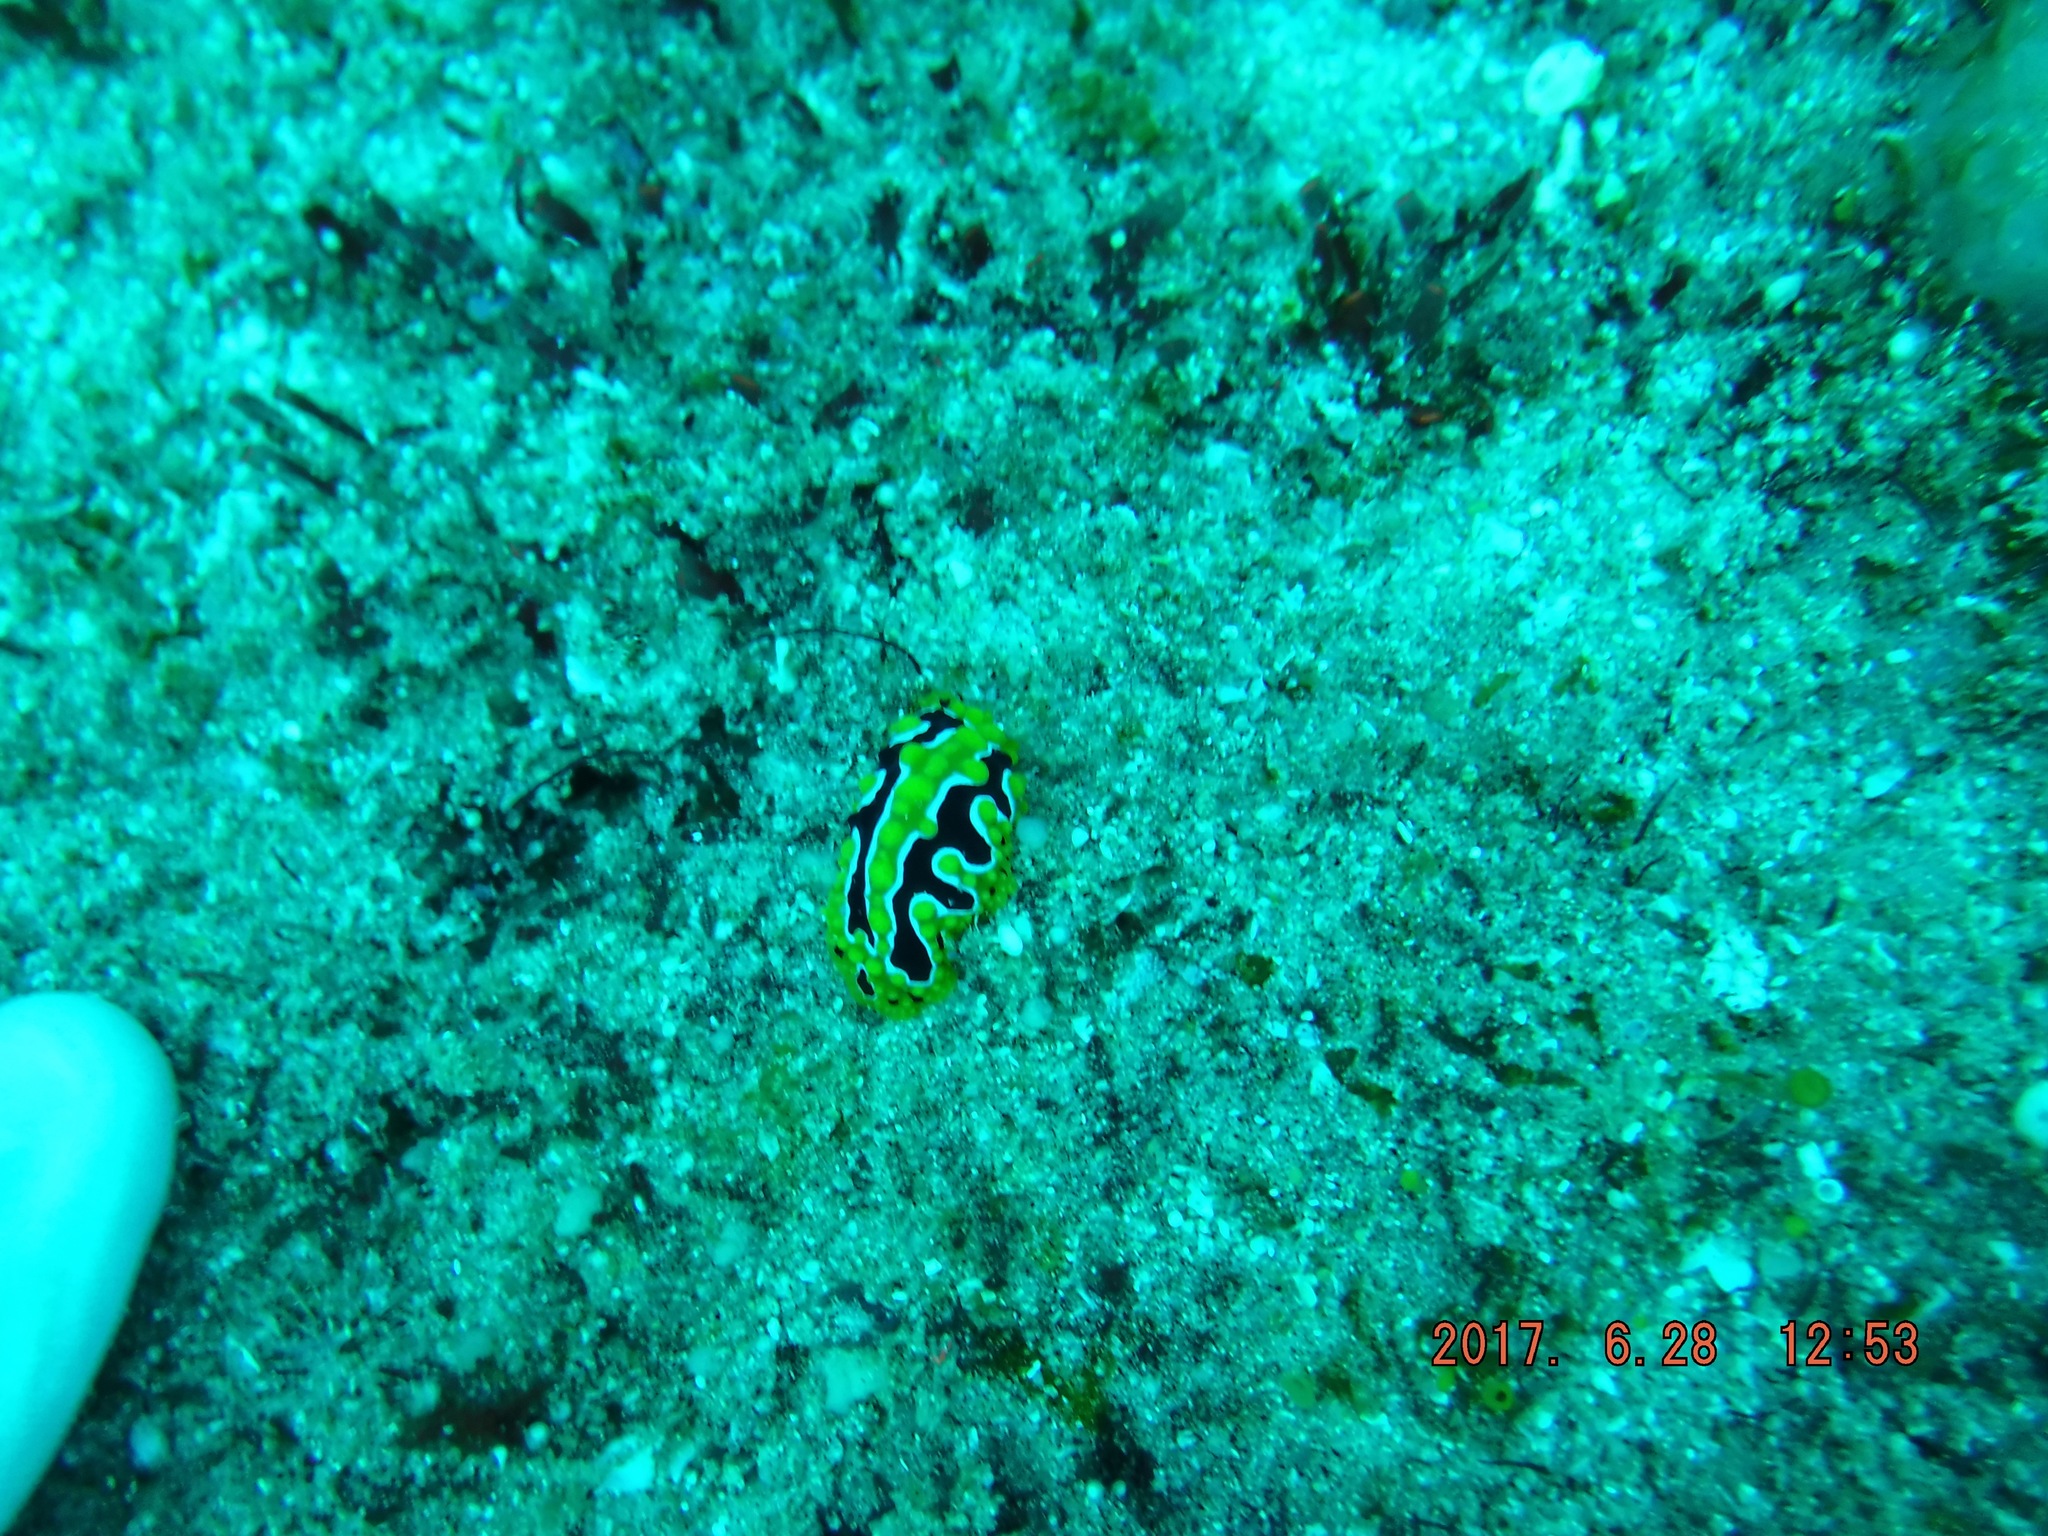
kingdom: Animalia
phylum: Mollusca
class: Gastropoda
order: Nudibranchia
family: Phyllidiidae
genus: Phyllidia
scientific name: Phyllidia ocellata
